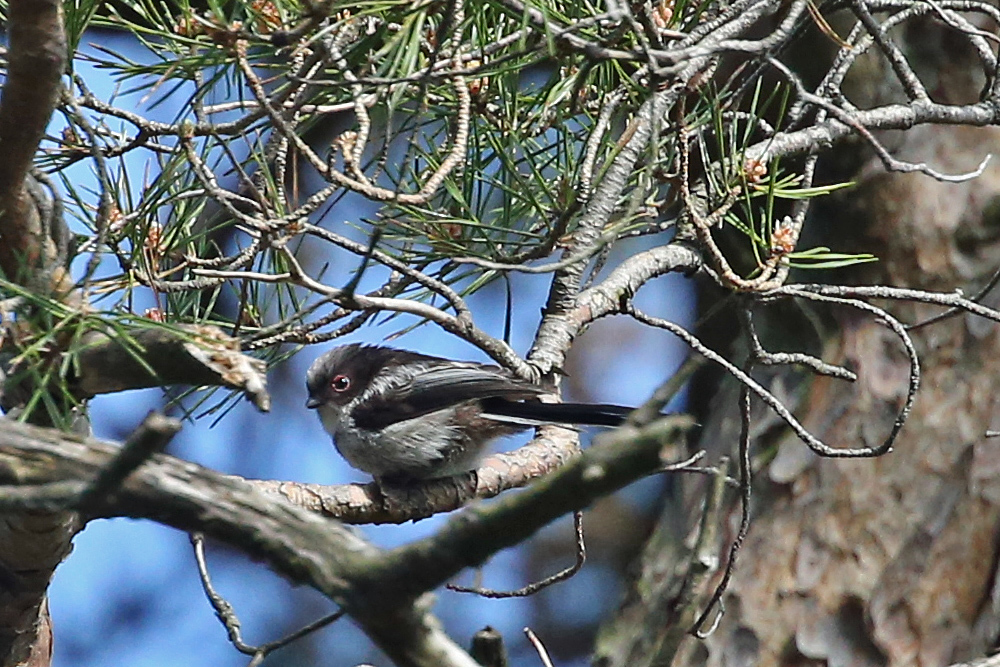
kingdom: Animalia
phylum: Chordata
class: Aves
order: Passeriformes
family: Aegithalidae
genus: Aegithalos
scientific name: Aegithalos caudatus
